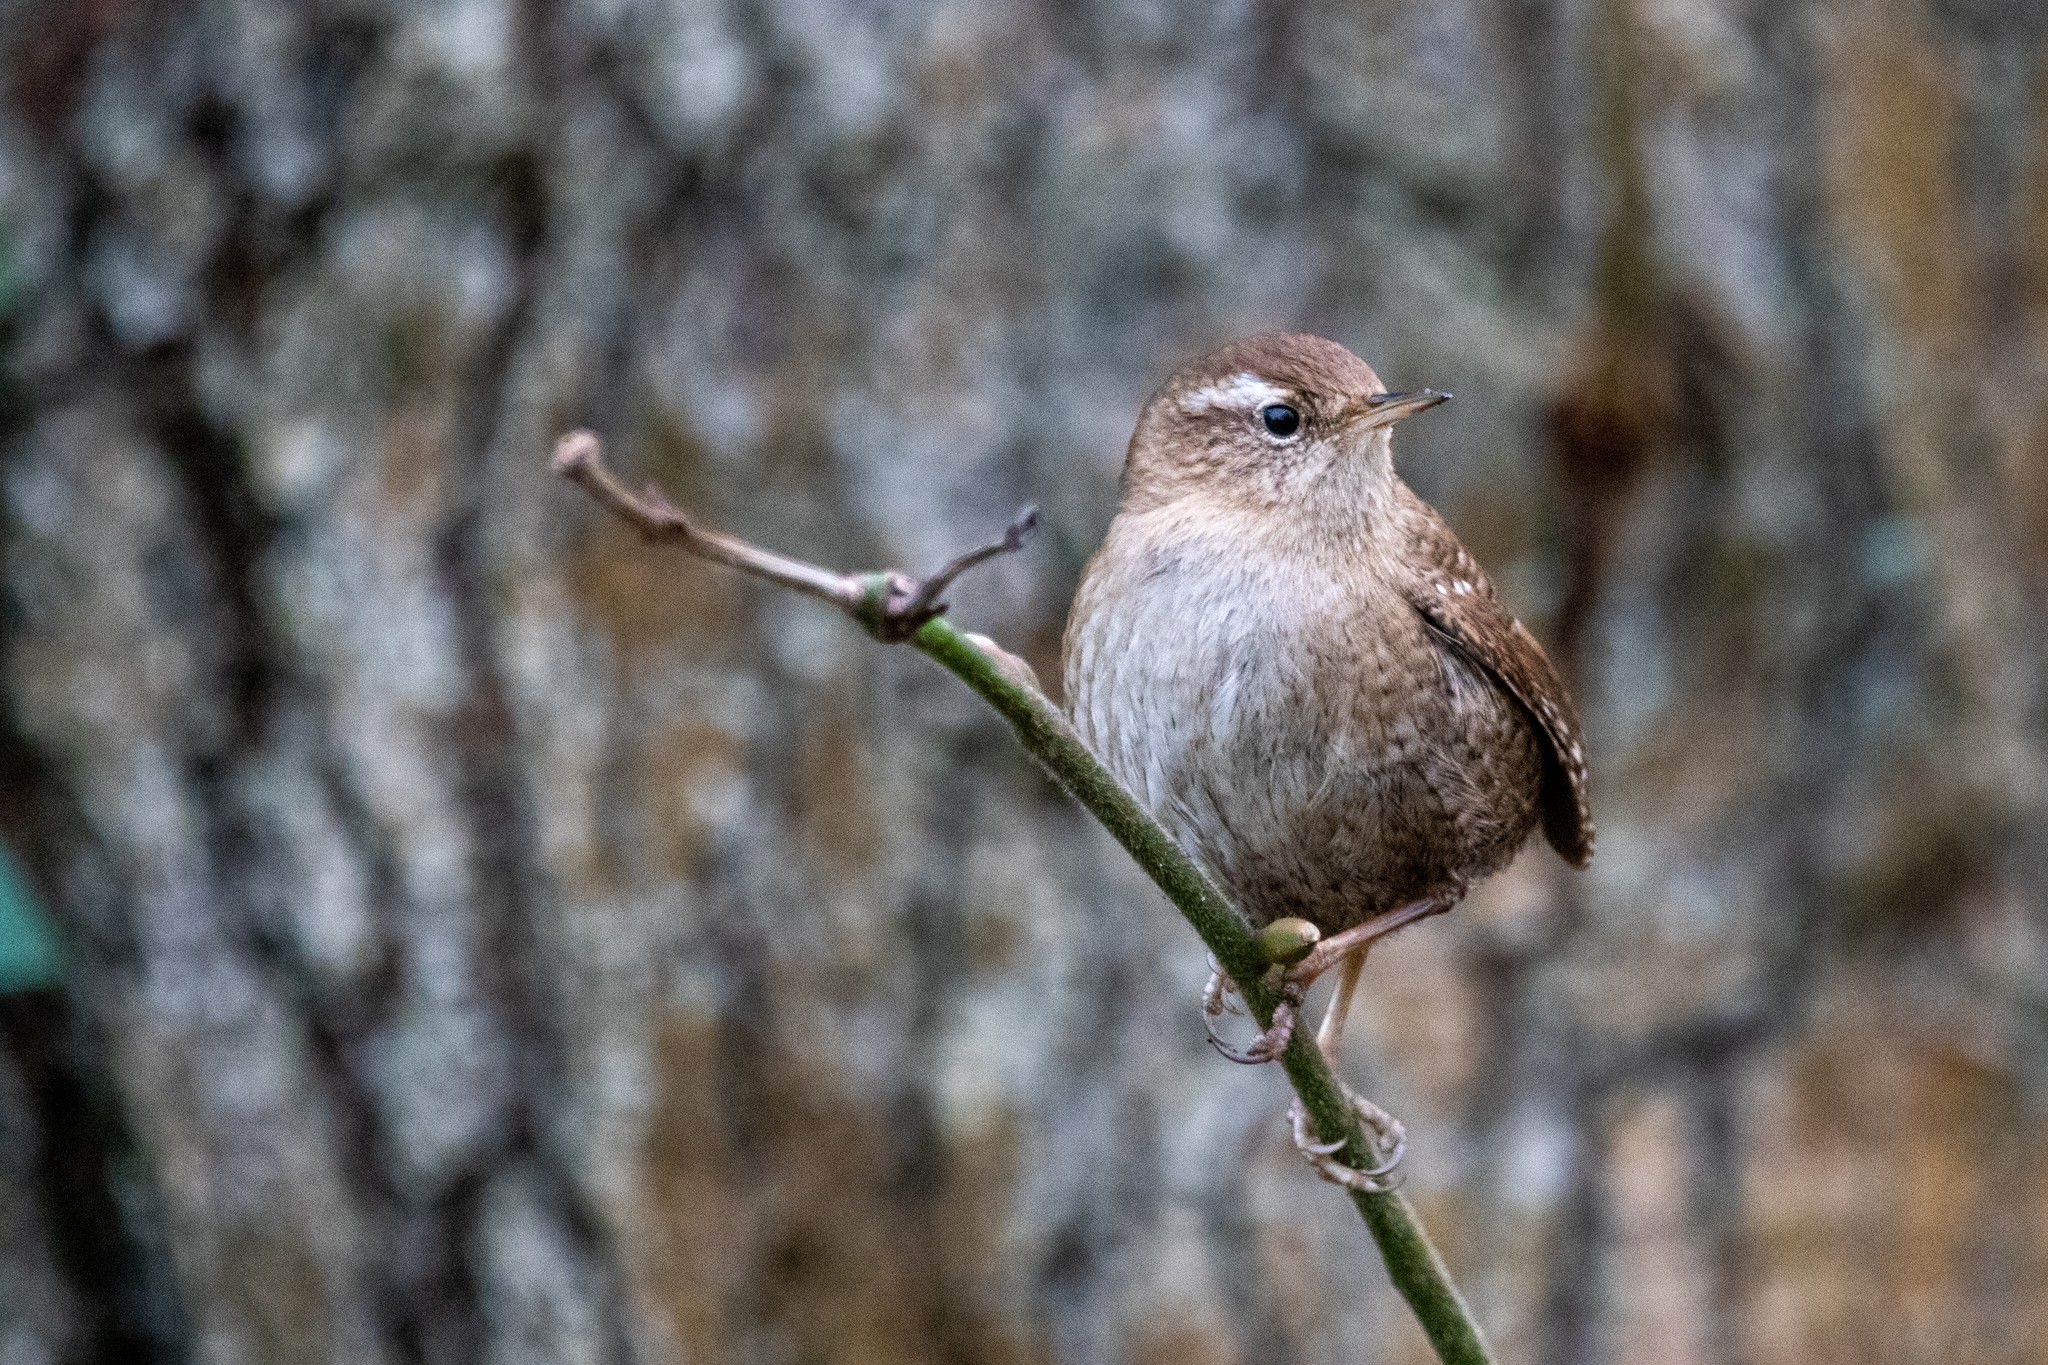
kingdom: Animalia
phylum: Chordata
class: Aves
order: Passeriformes
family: Troglodytidae
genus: Troglodytes
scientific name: Troglodytes troglodytes
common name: Eurasian wren
